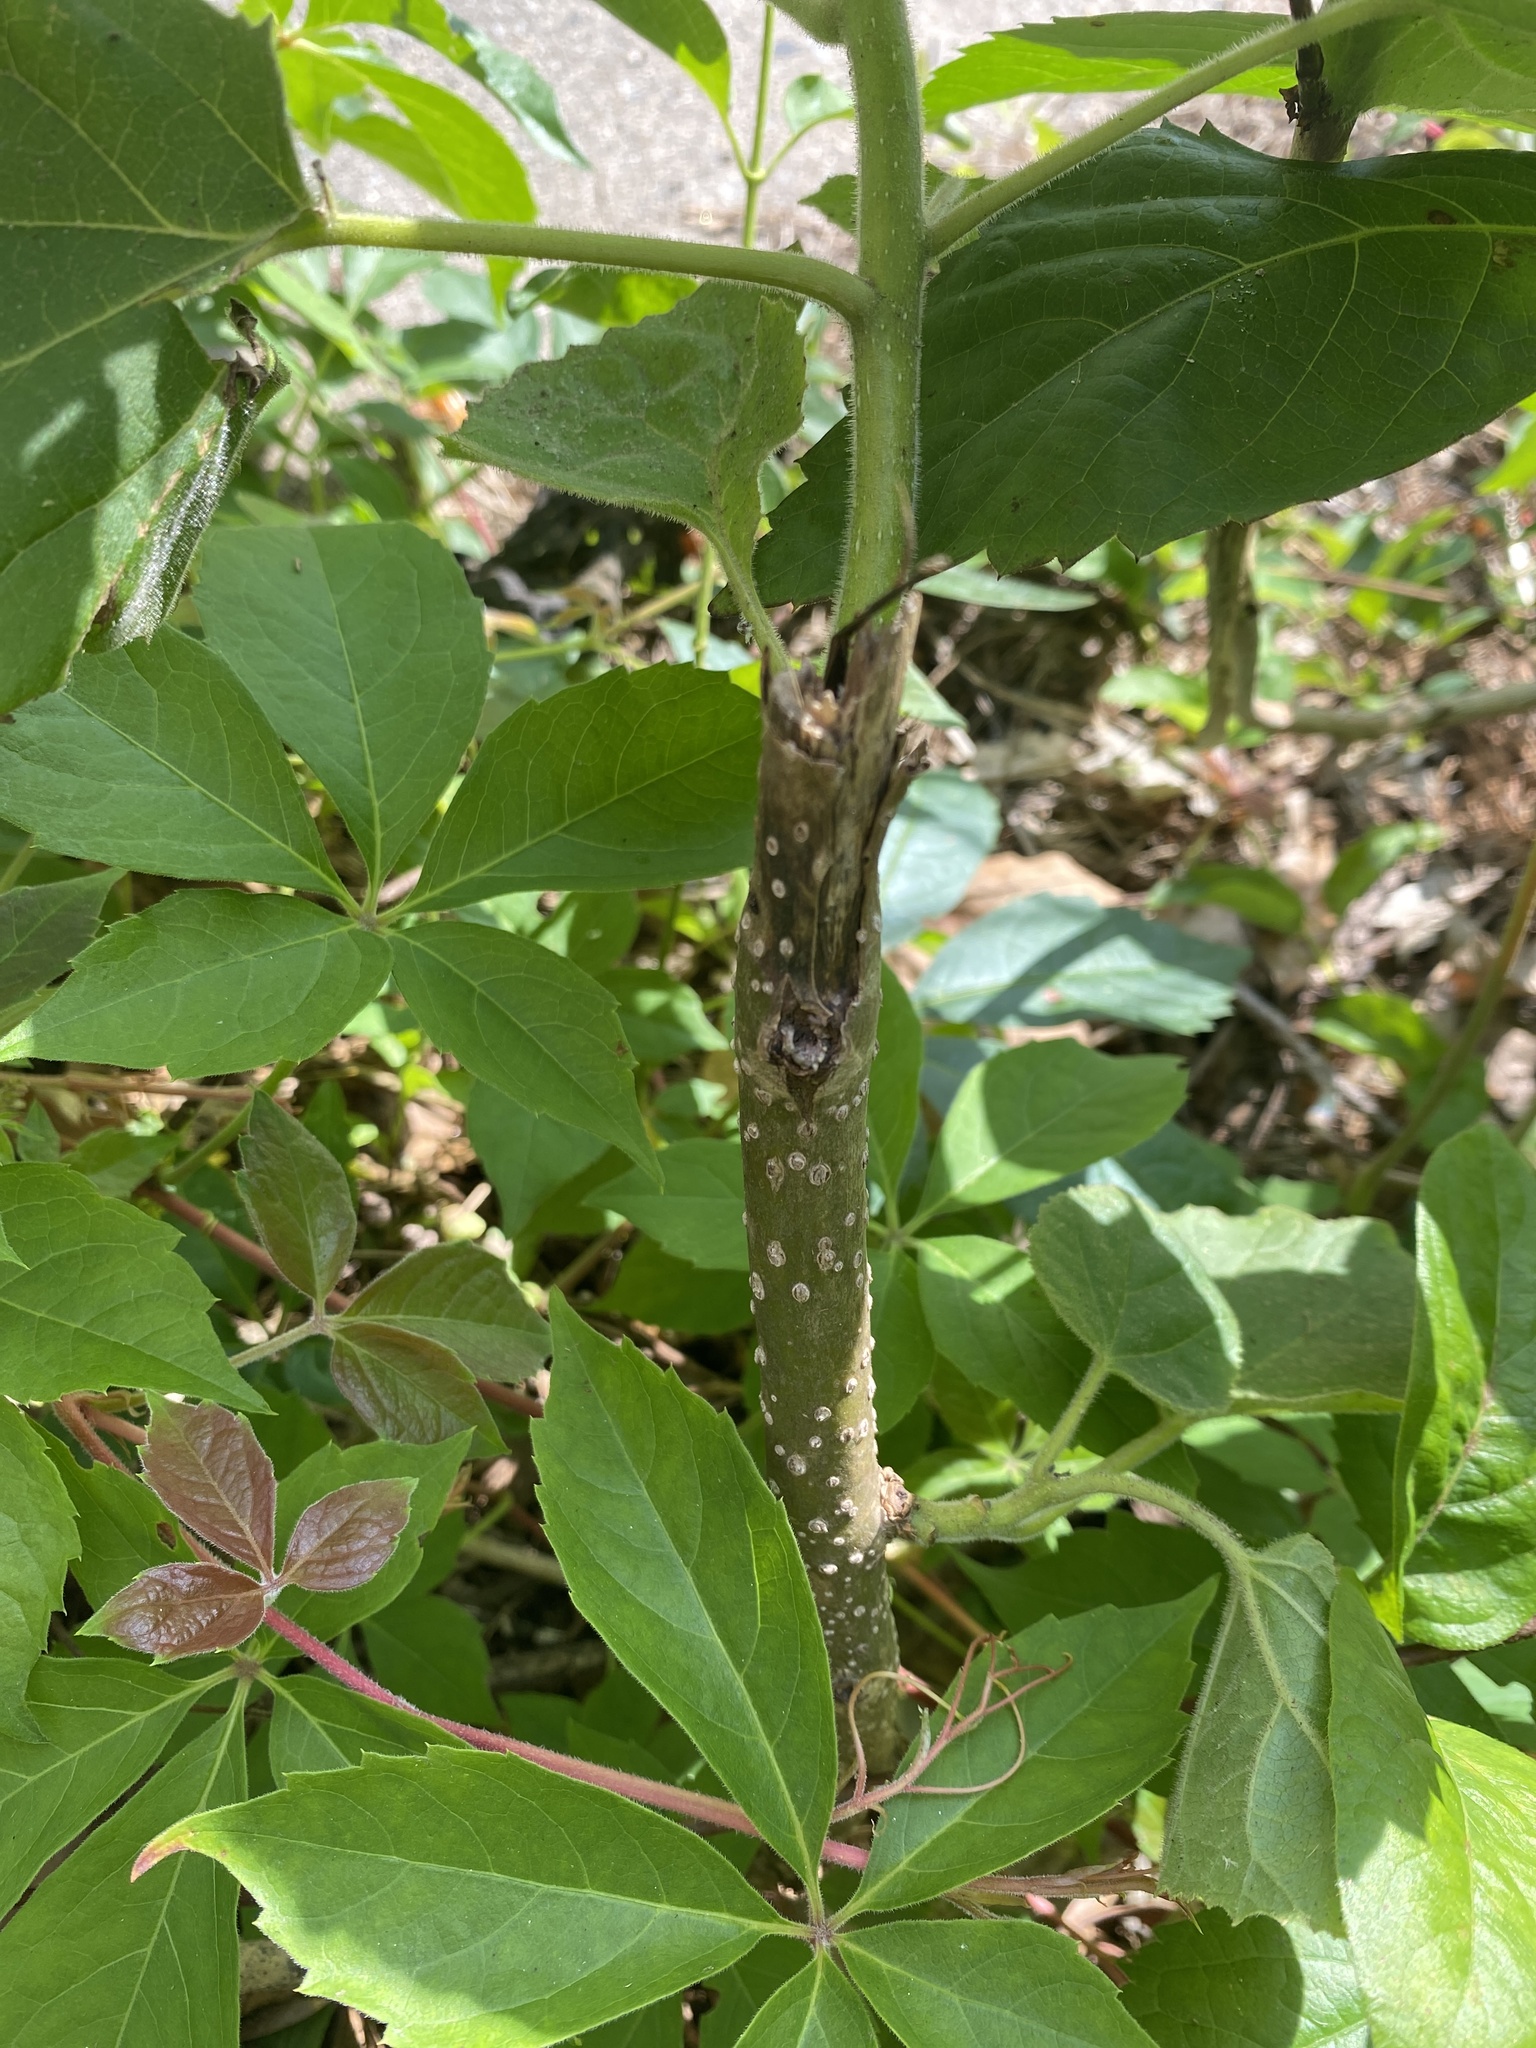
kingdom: Plantae
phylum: Tracheophyta
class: Magnoliopsida
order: Lamiales
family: Paulowniaceae
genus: Paulownia
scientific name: Paulownia tomentosa
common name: Foxglove-tree
